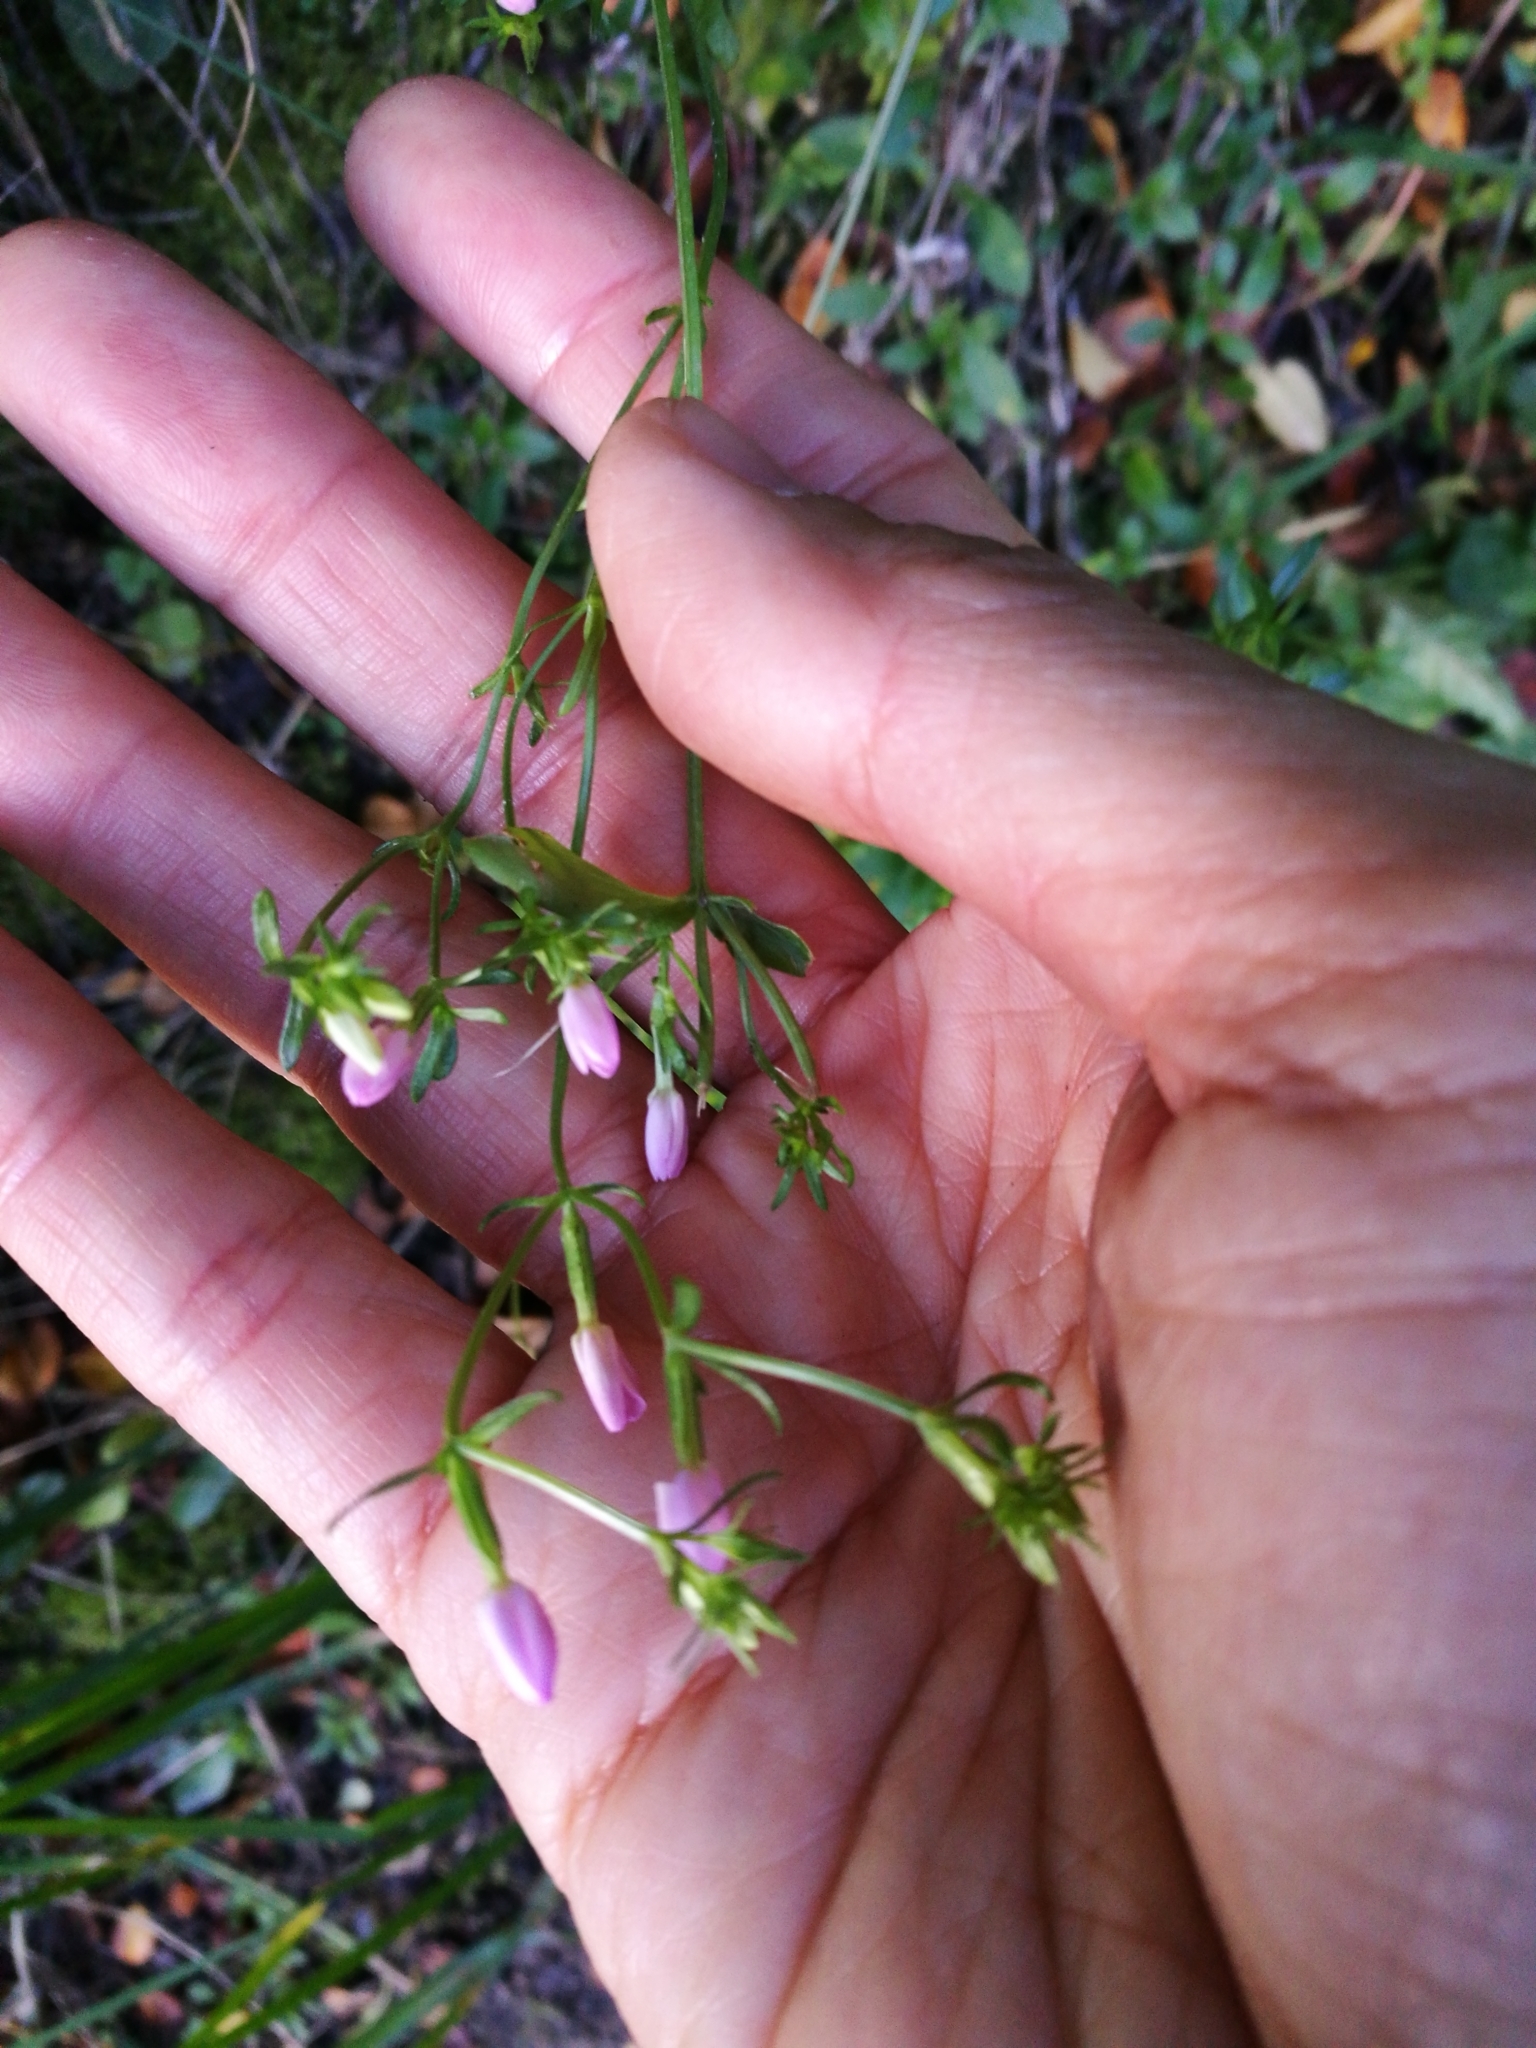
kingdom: Plantae
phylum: Tracheophyta
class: Magnoliopsida
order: Gentianales
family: Gentianaceae
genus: Centaurium
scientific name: Centaurium erythraea
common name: Common centaury
